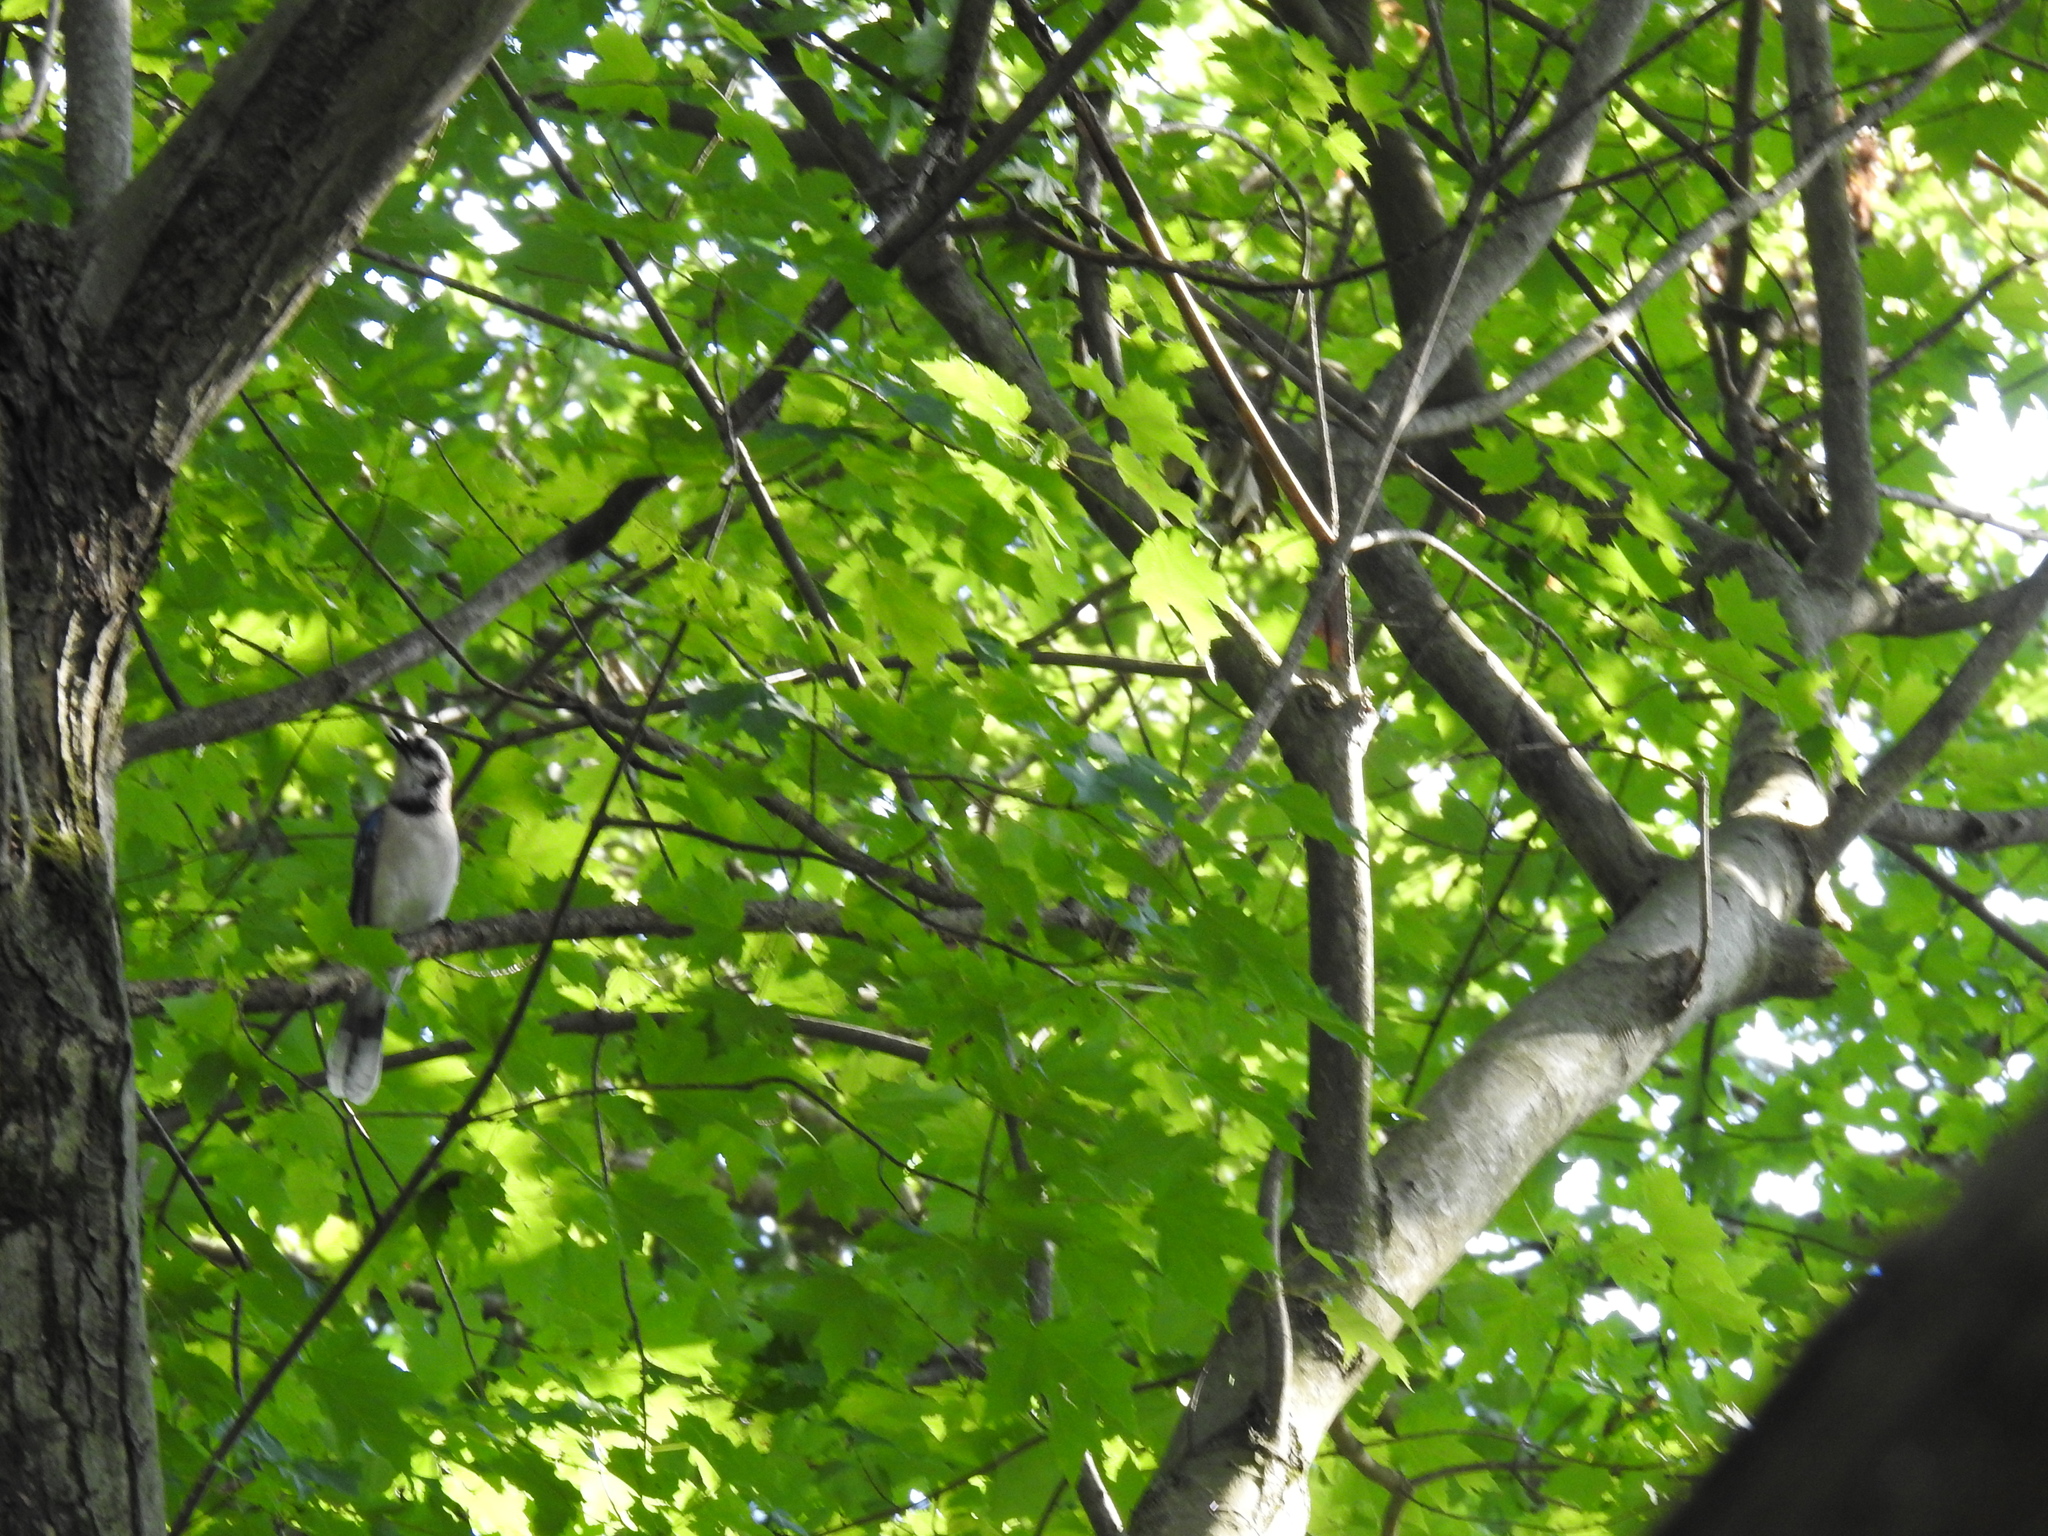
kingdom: Animalia
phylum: Chordata
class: Aves
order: Passeriformes
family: Corvidae
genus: Cyanocitta
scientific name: Cyanocitta cristata
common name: Blue jay
